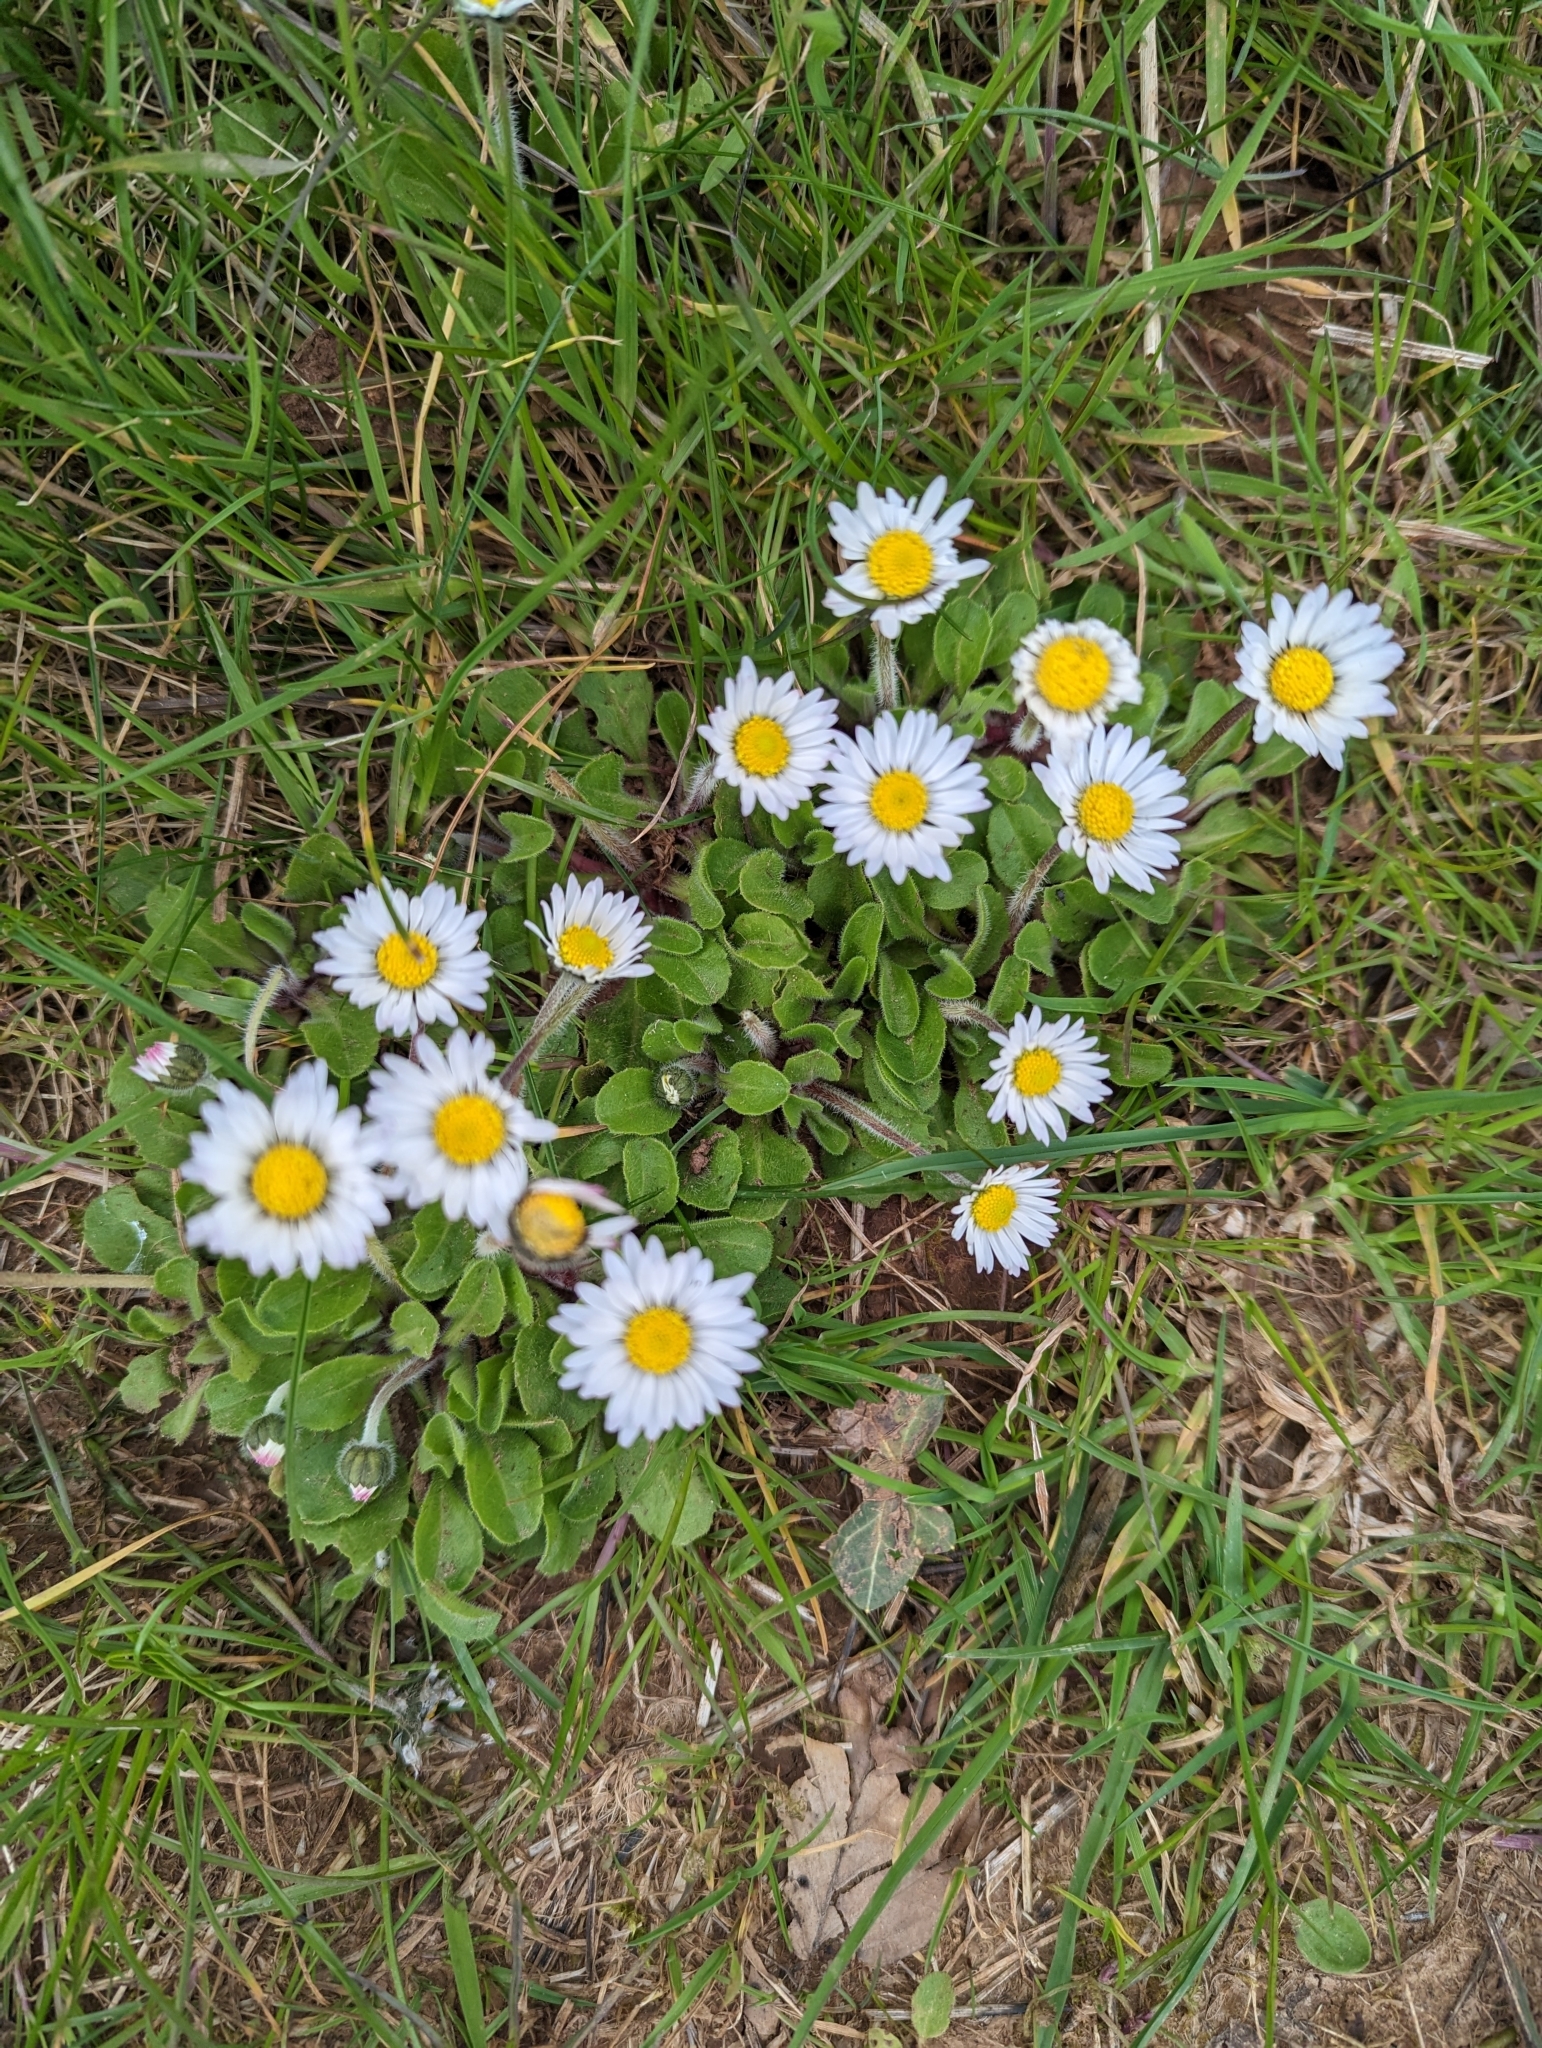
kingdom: Plantae
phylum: Tracheophyta
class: Magnoliopsida
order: Asterales
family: Asteraceae
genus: Bellis
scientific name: Bellis perennis
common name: Lawndaisy
